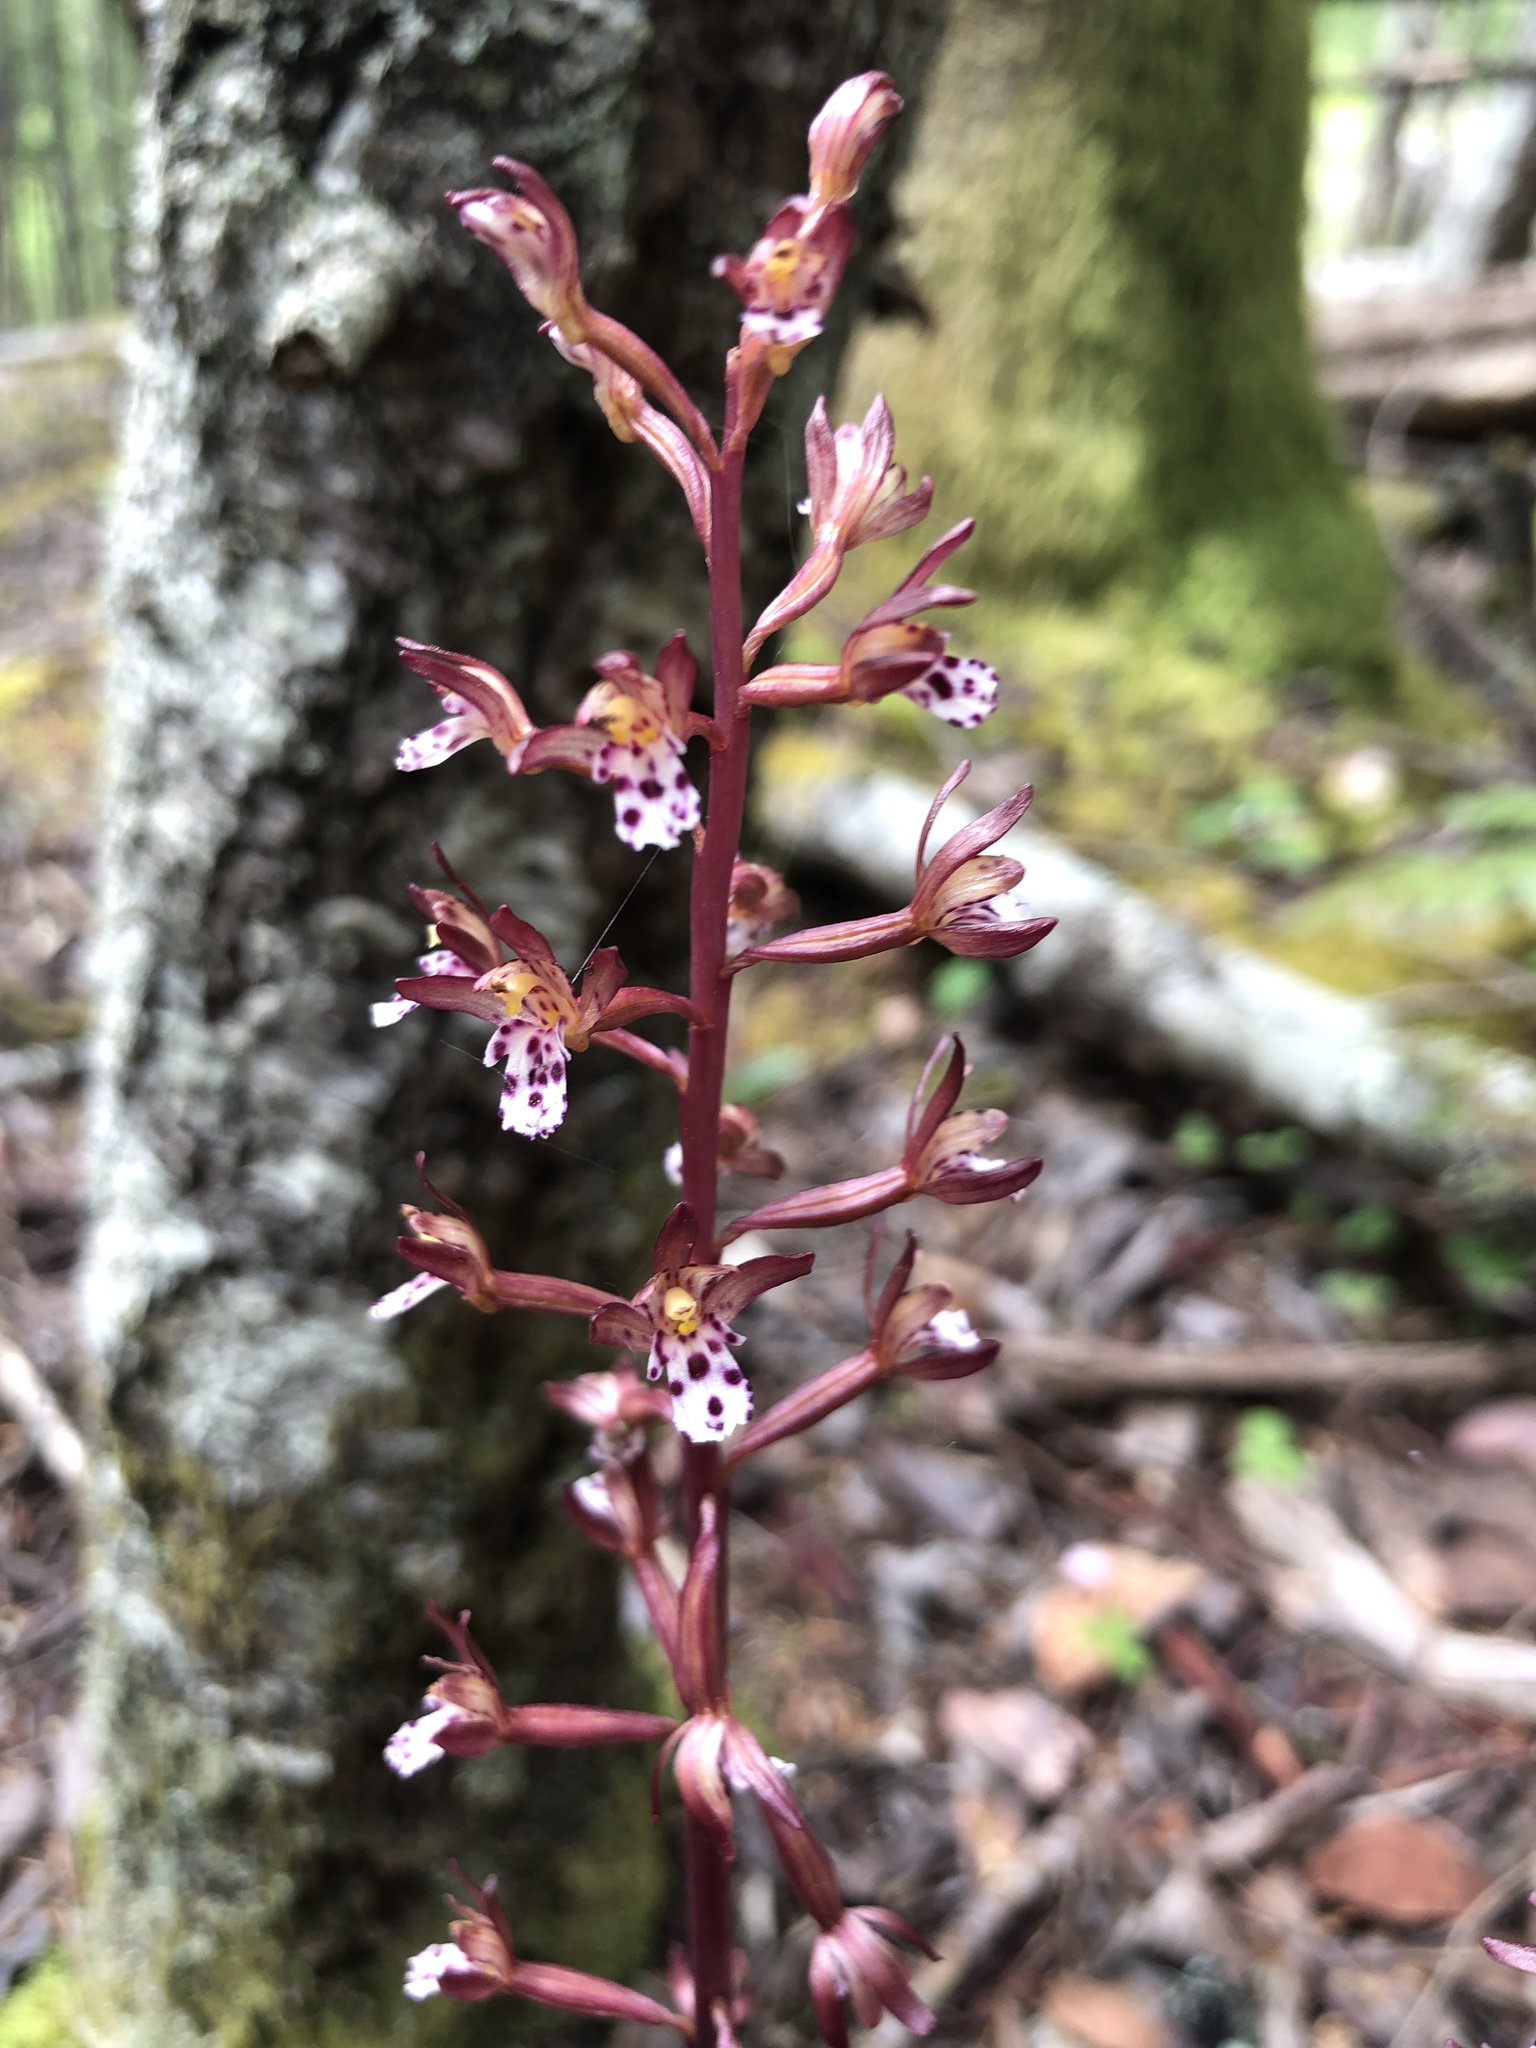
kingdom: Plantae
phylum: Tracheophyta
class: Liliopsida
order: Asparagales
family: Orchidaceae
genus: Corallorhiza
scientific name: Corallorhiza maculata
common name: Spotted coralroot
